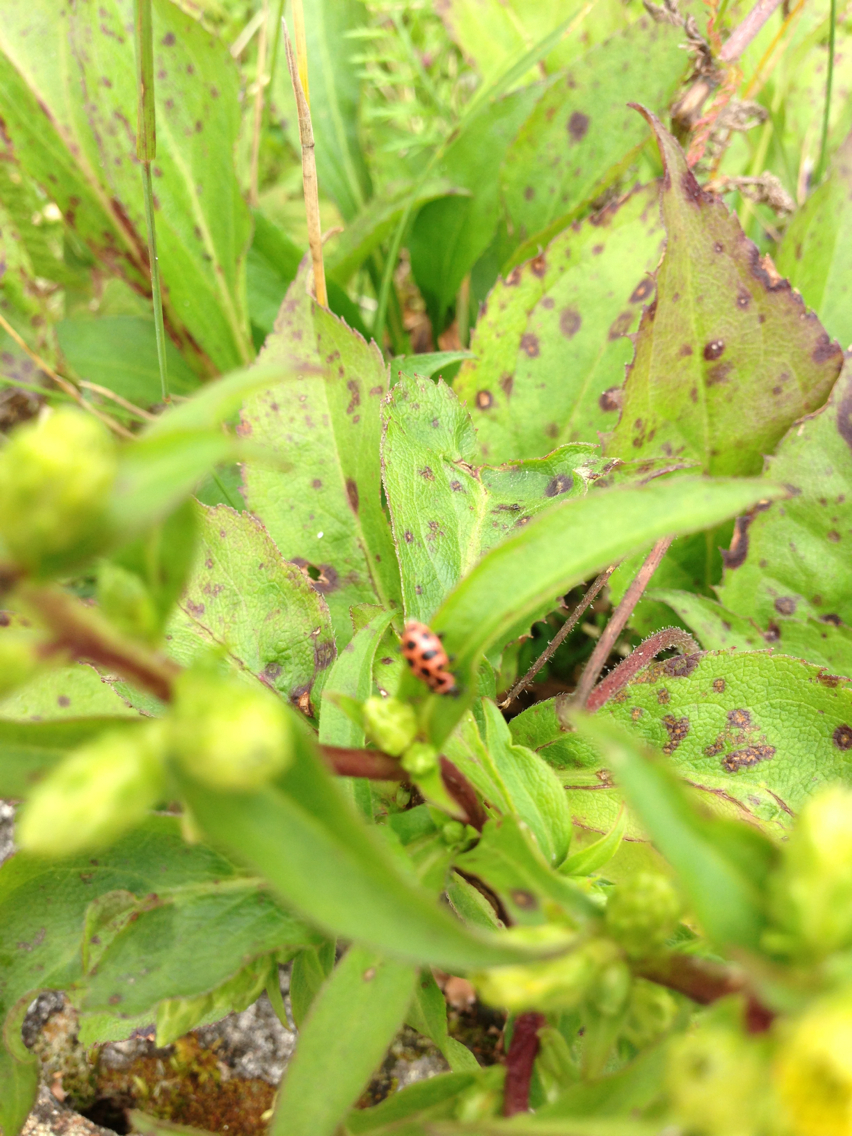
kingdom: Animalia
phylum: Arthropoda
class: Insecta
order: Coleoptera
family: Coccinellidae
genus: Coleomegilla
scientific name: Coleomegilla maculata
